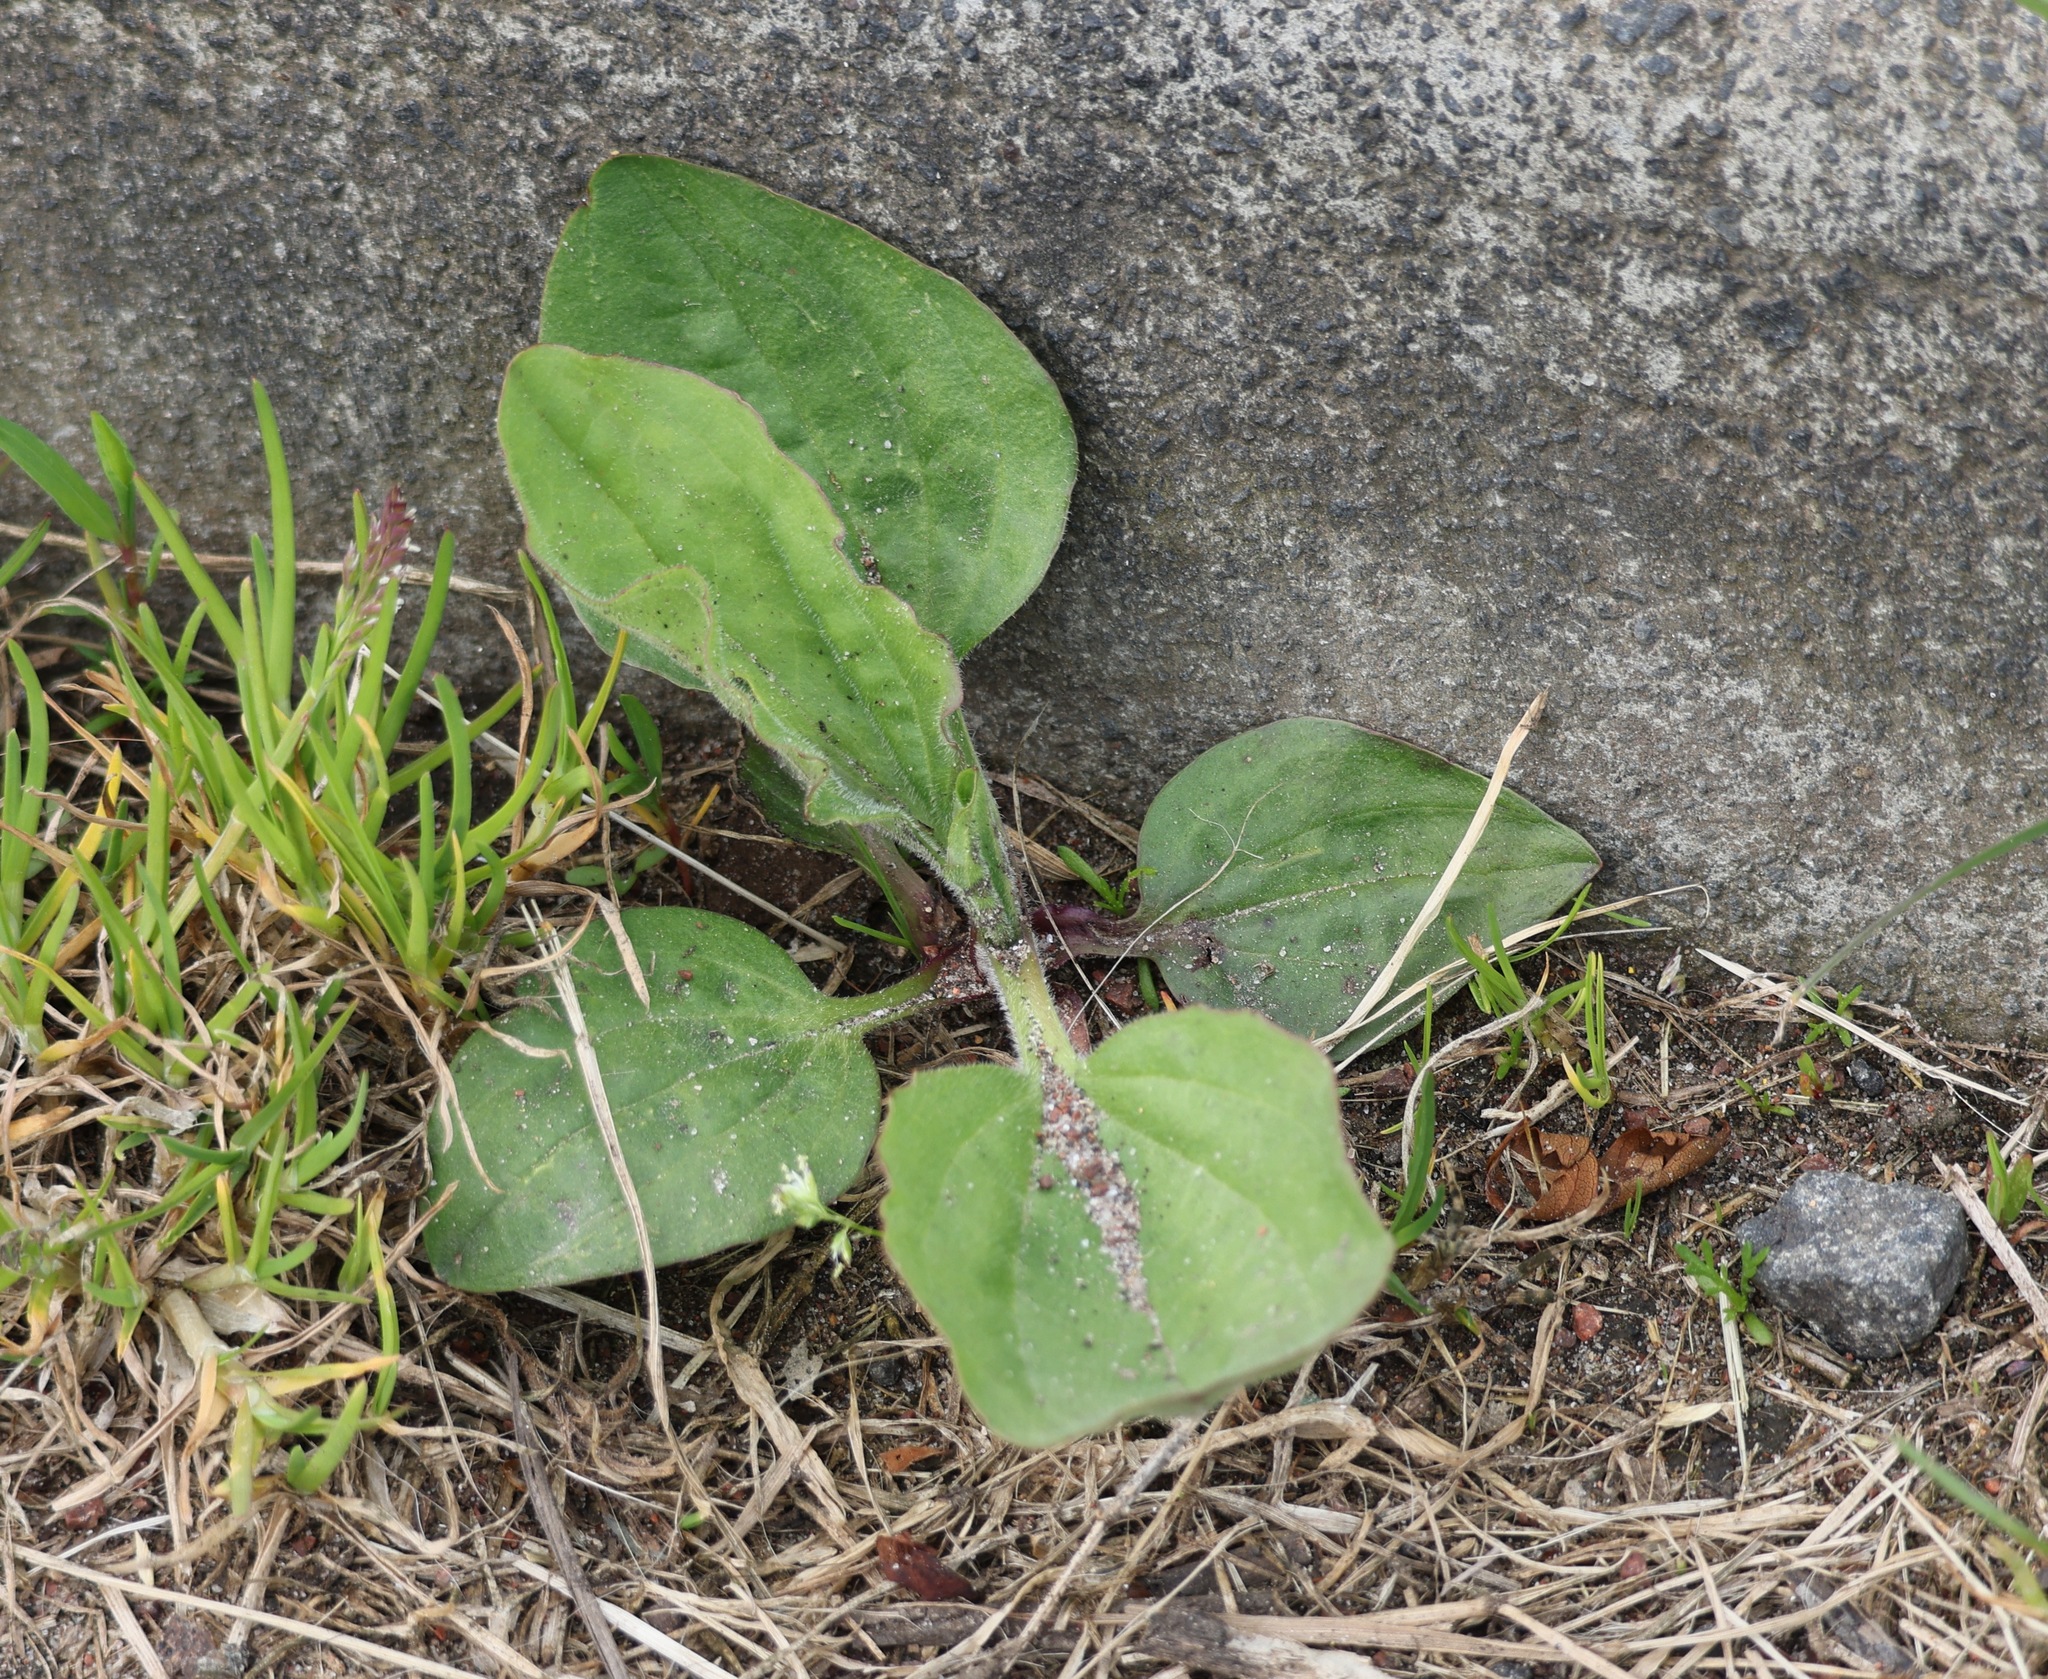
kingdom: Plantae
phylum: Tracheophyta
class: Magnoliopsida
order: Lamiales
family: Plantaginaceae
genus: Plantago
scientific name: Plantago major
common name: Common plantain
